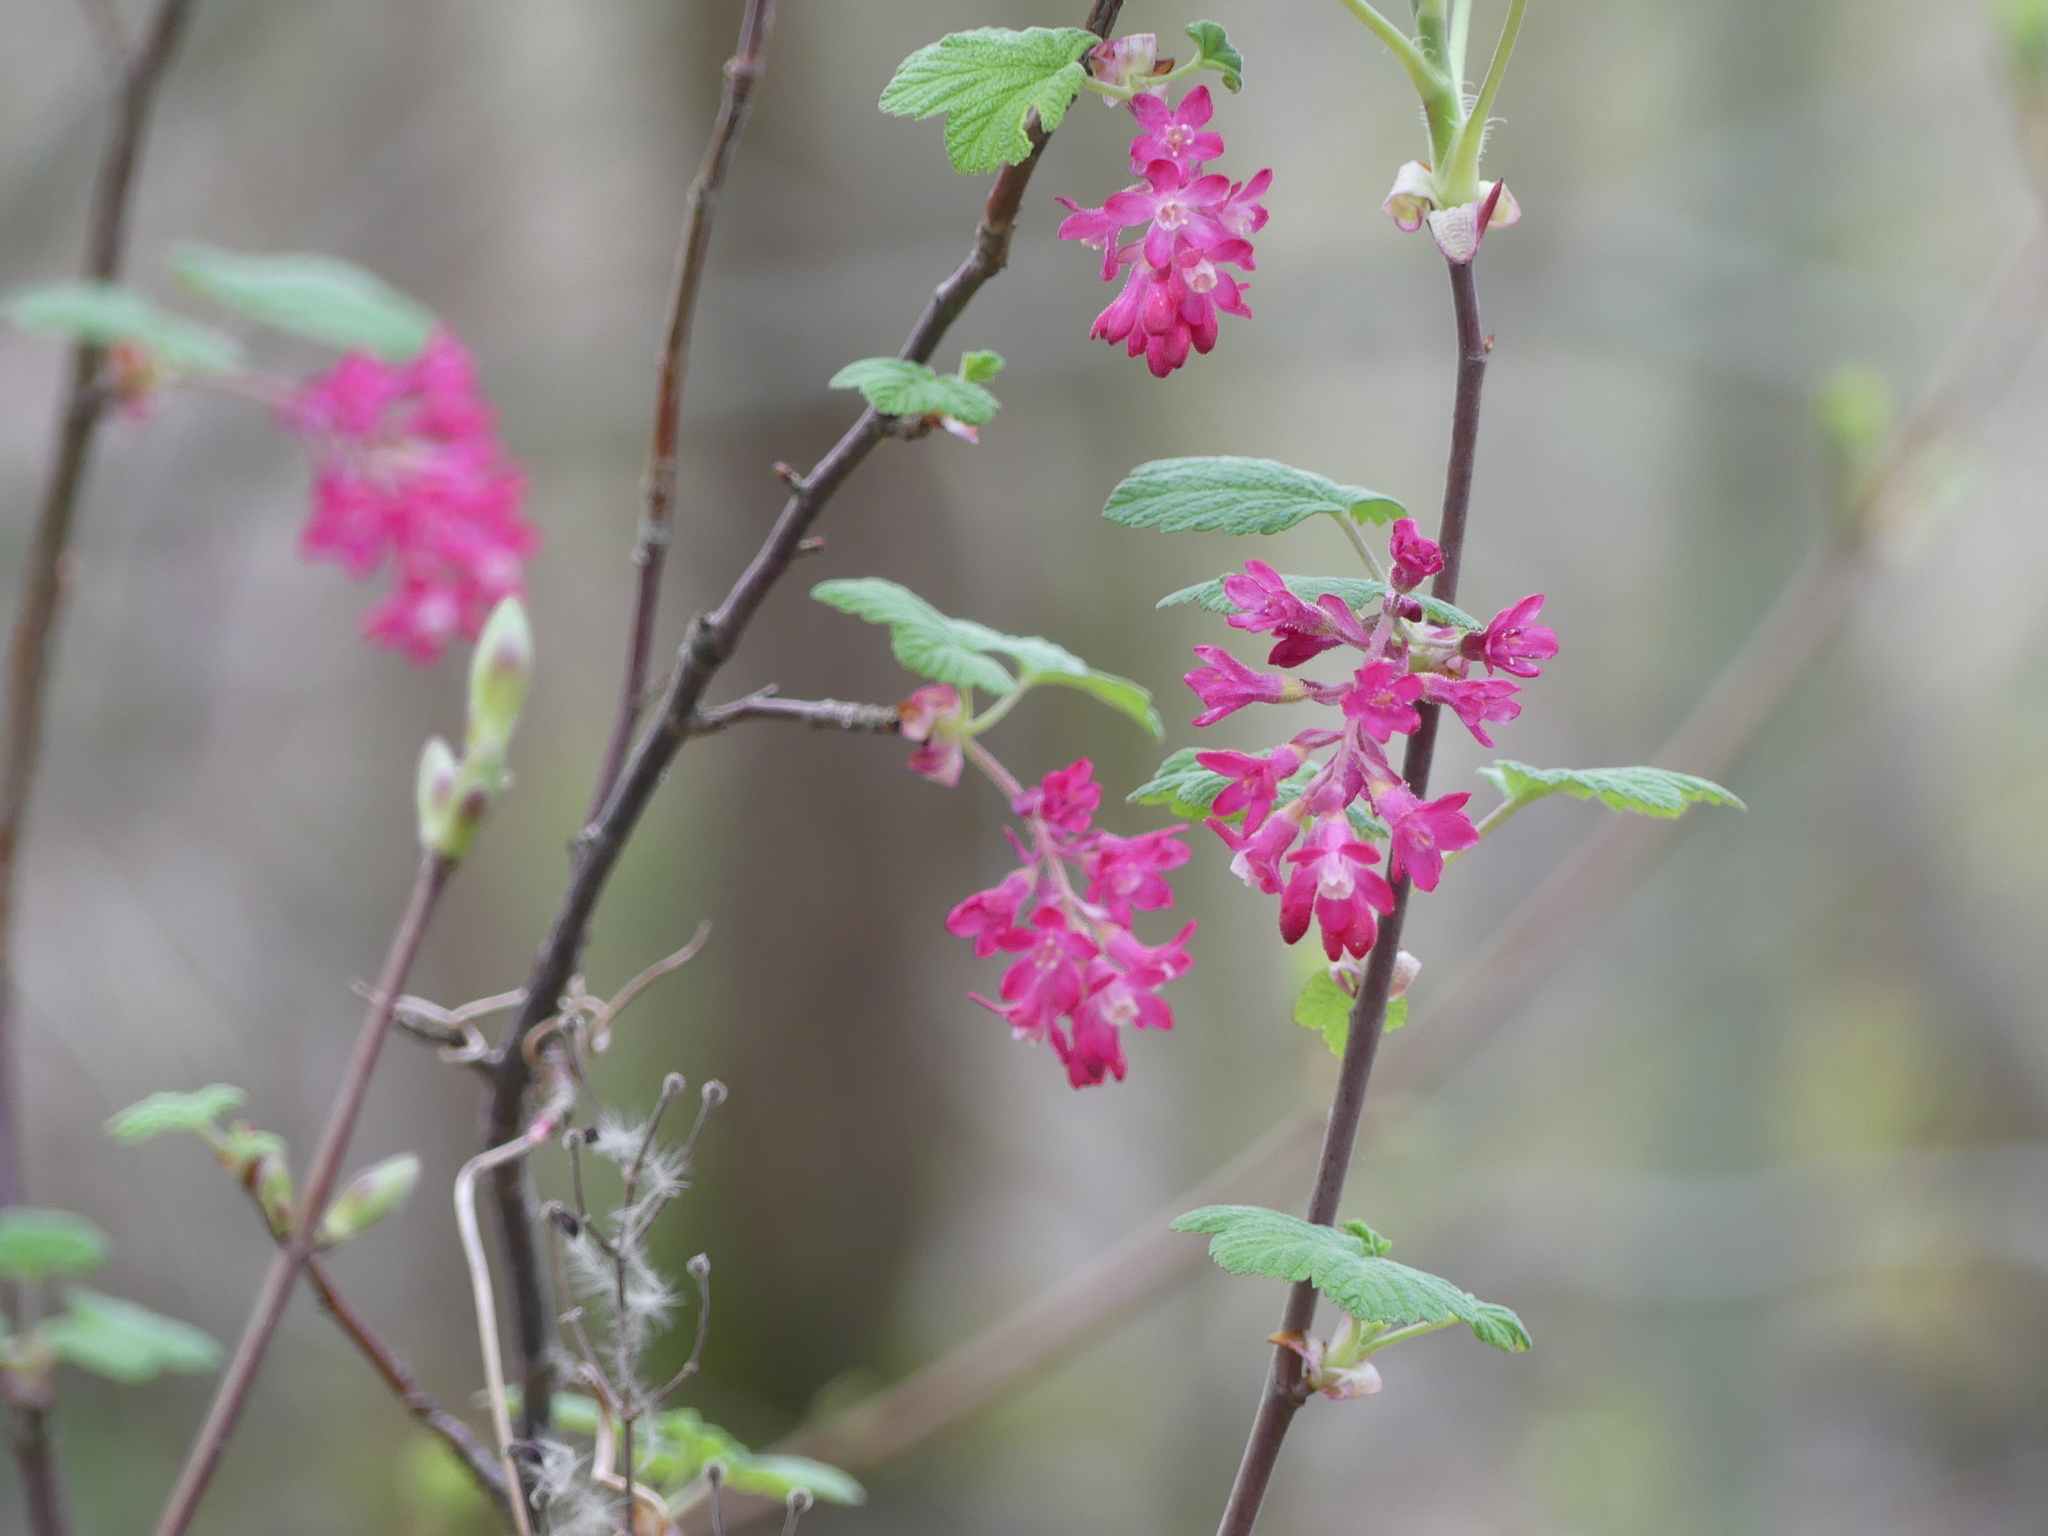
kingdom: Plantae
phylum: Tracheophyta
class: Magnoliopsida
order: Saxifragales
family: Grossulariaceae
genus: Ribes
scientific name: Ribes sanguineum
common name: Flowering currant
